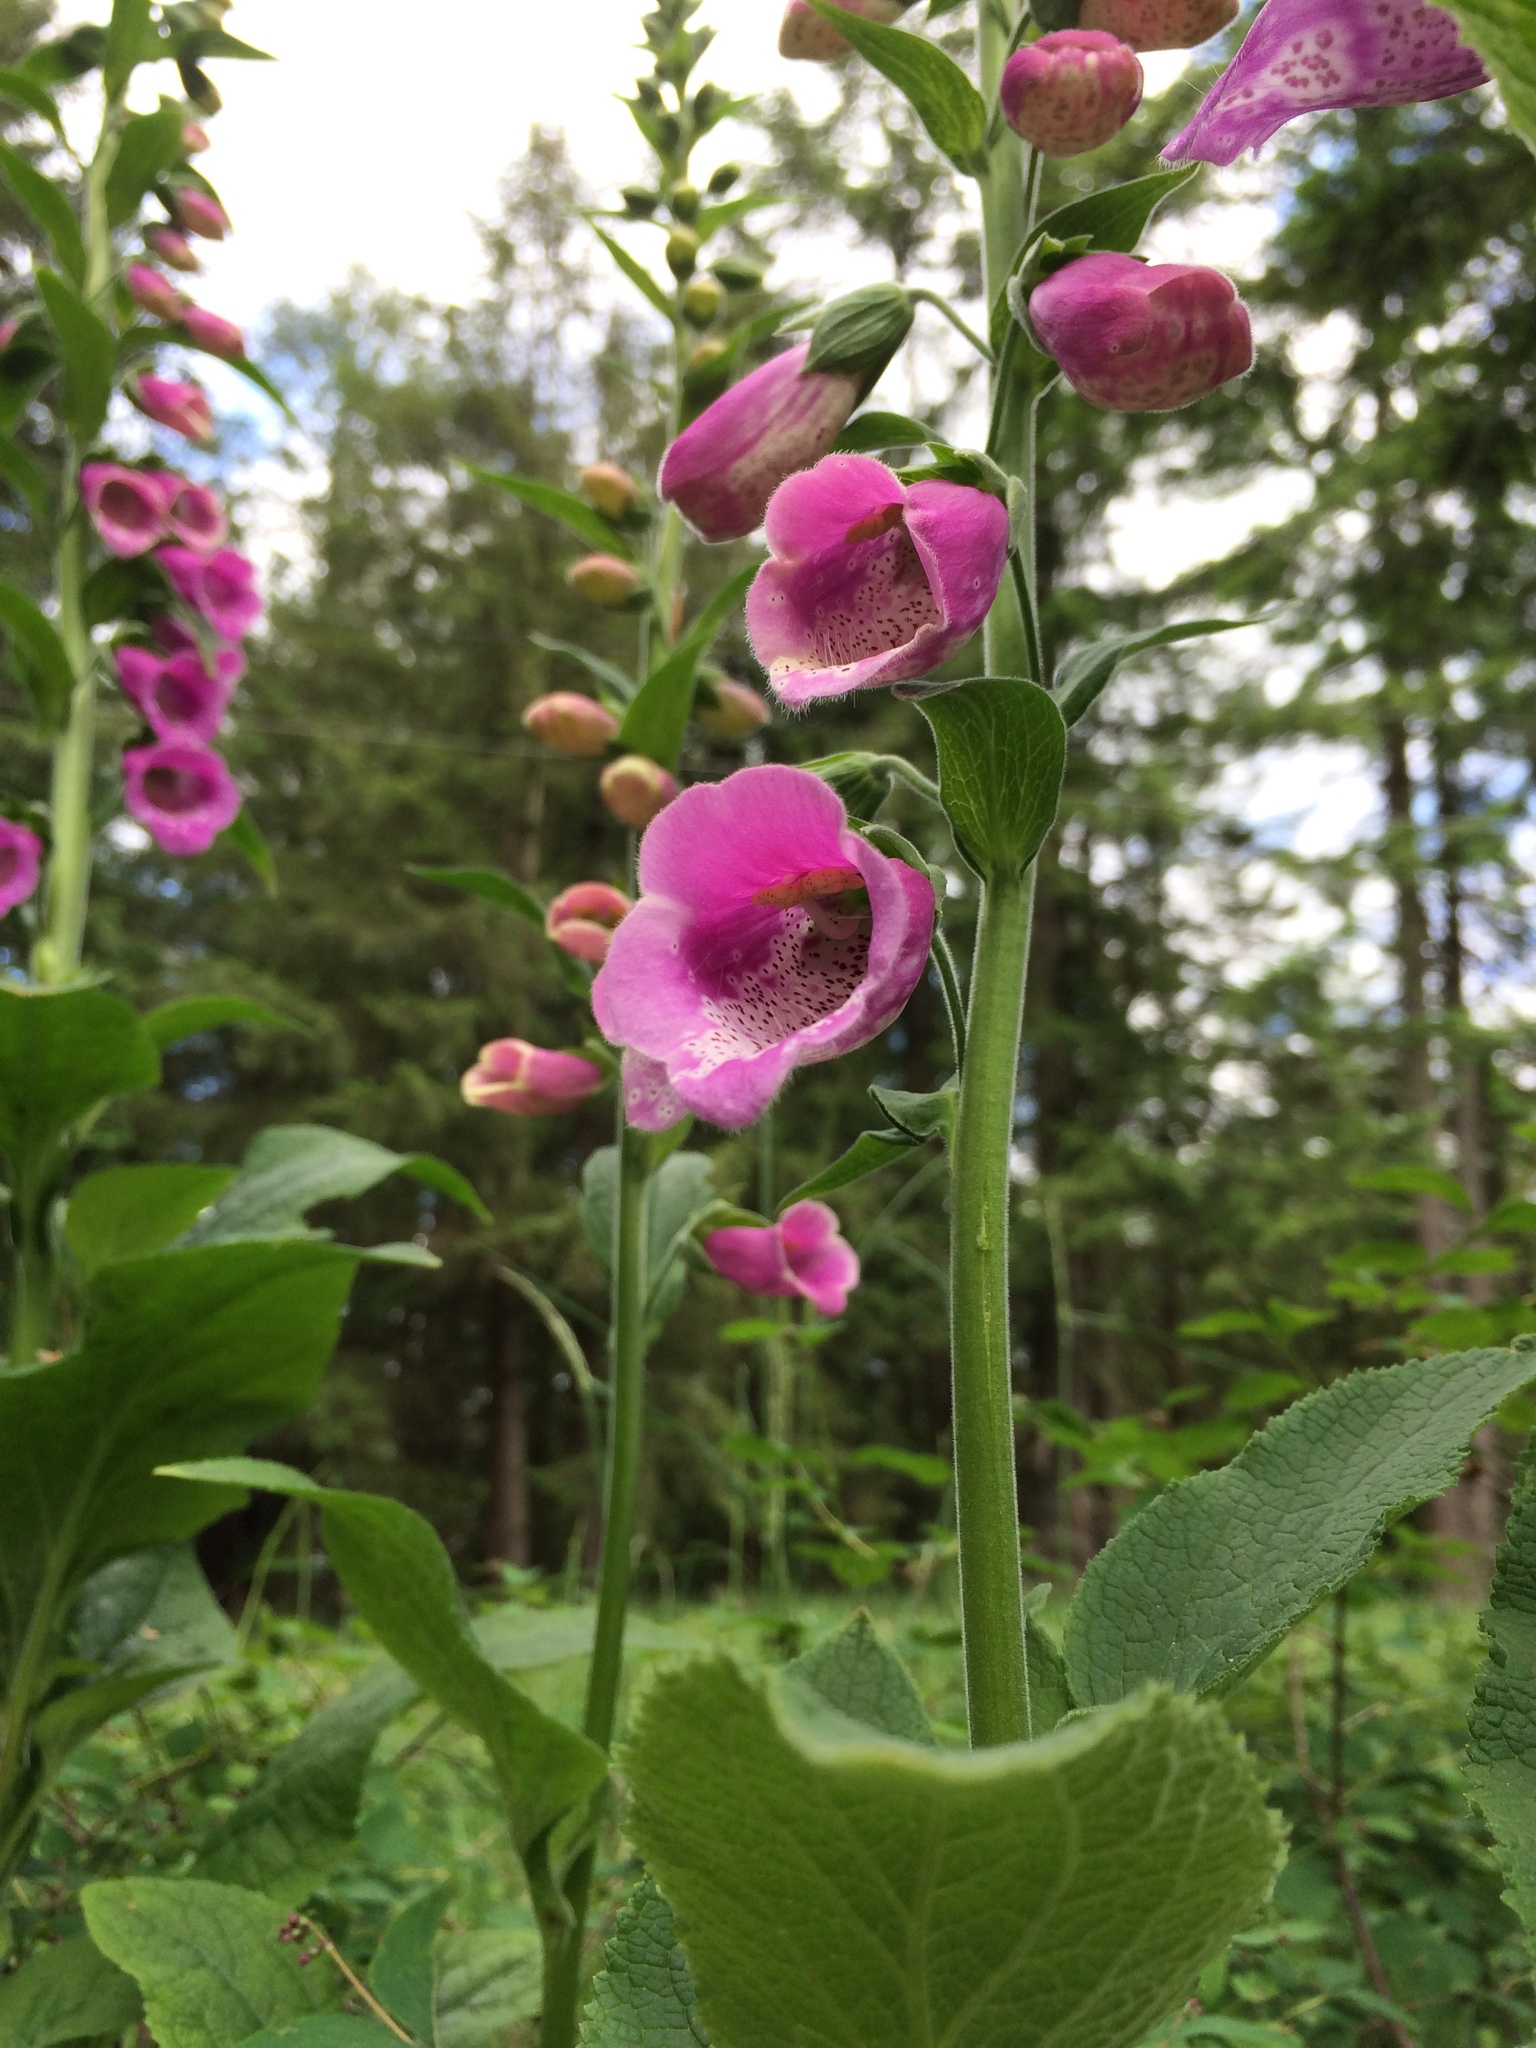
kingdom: Plantae
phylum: Tracheophyta
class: Magnoliopsida
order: Lamiales
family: Plantaginaceae
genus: Digitalis
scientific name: Digitalis purpurea
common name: Foxglove
